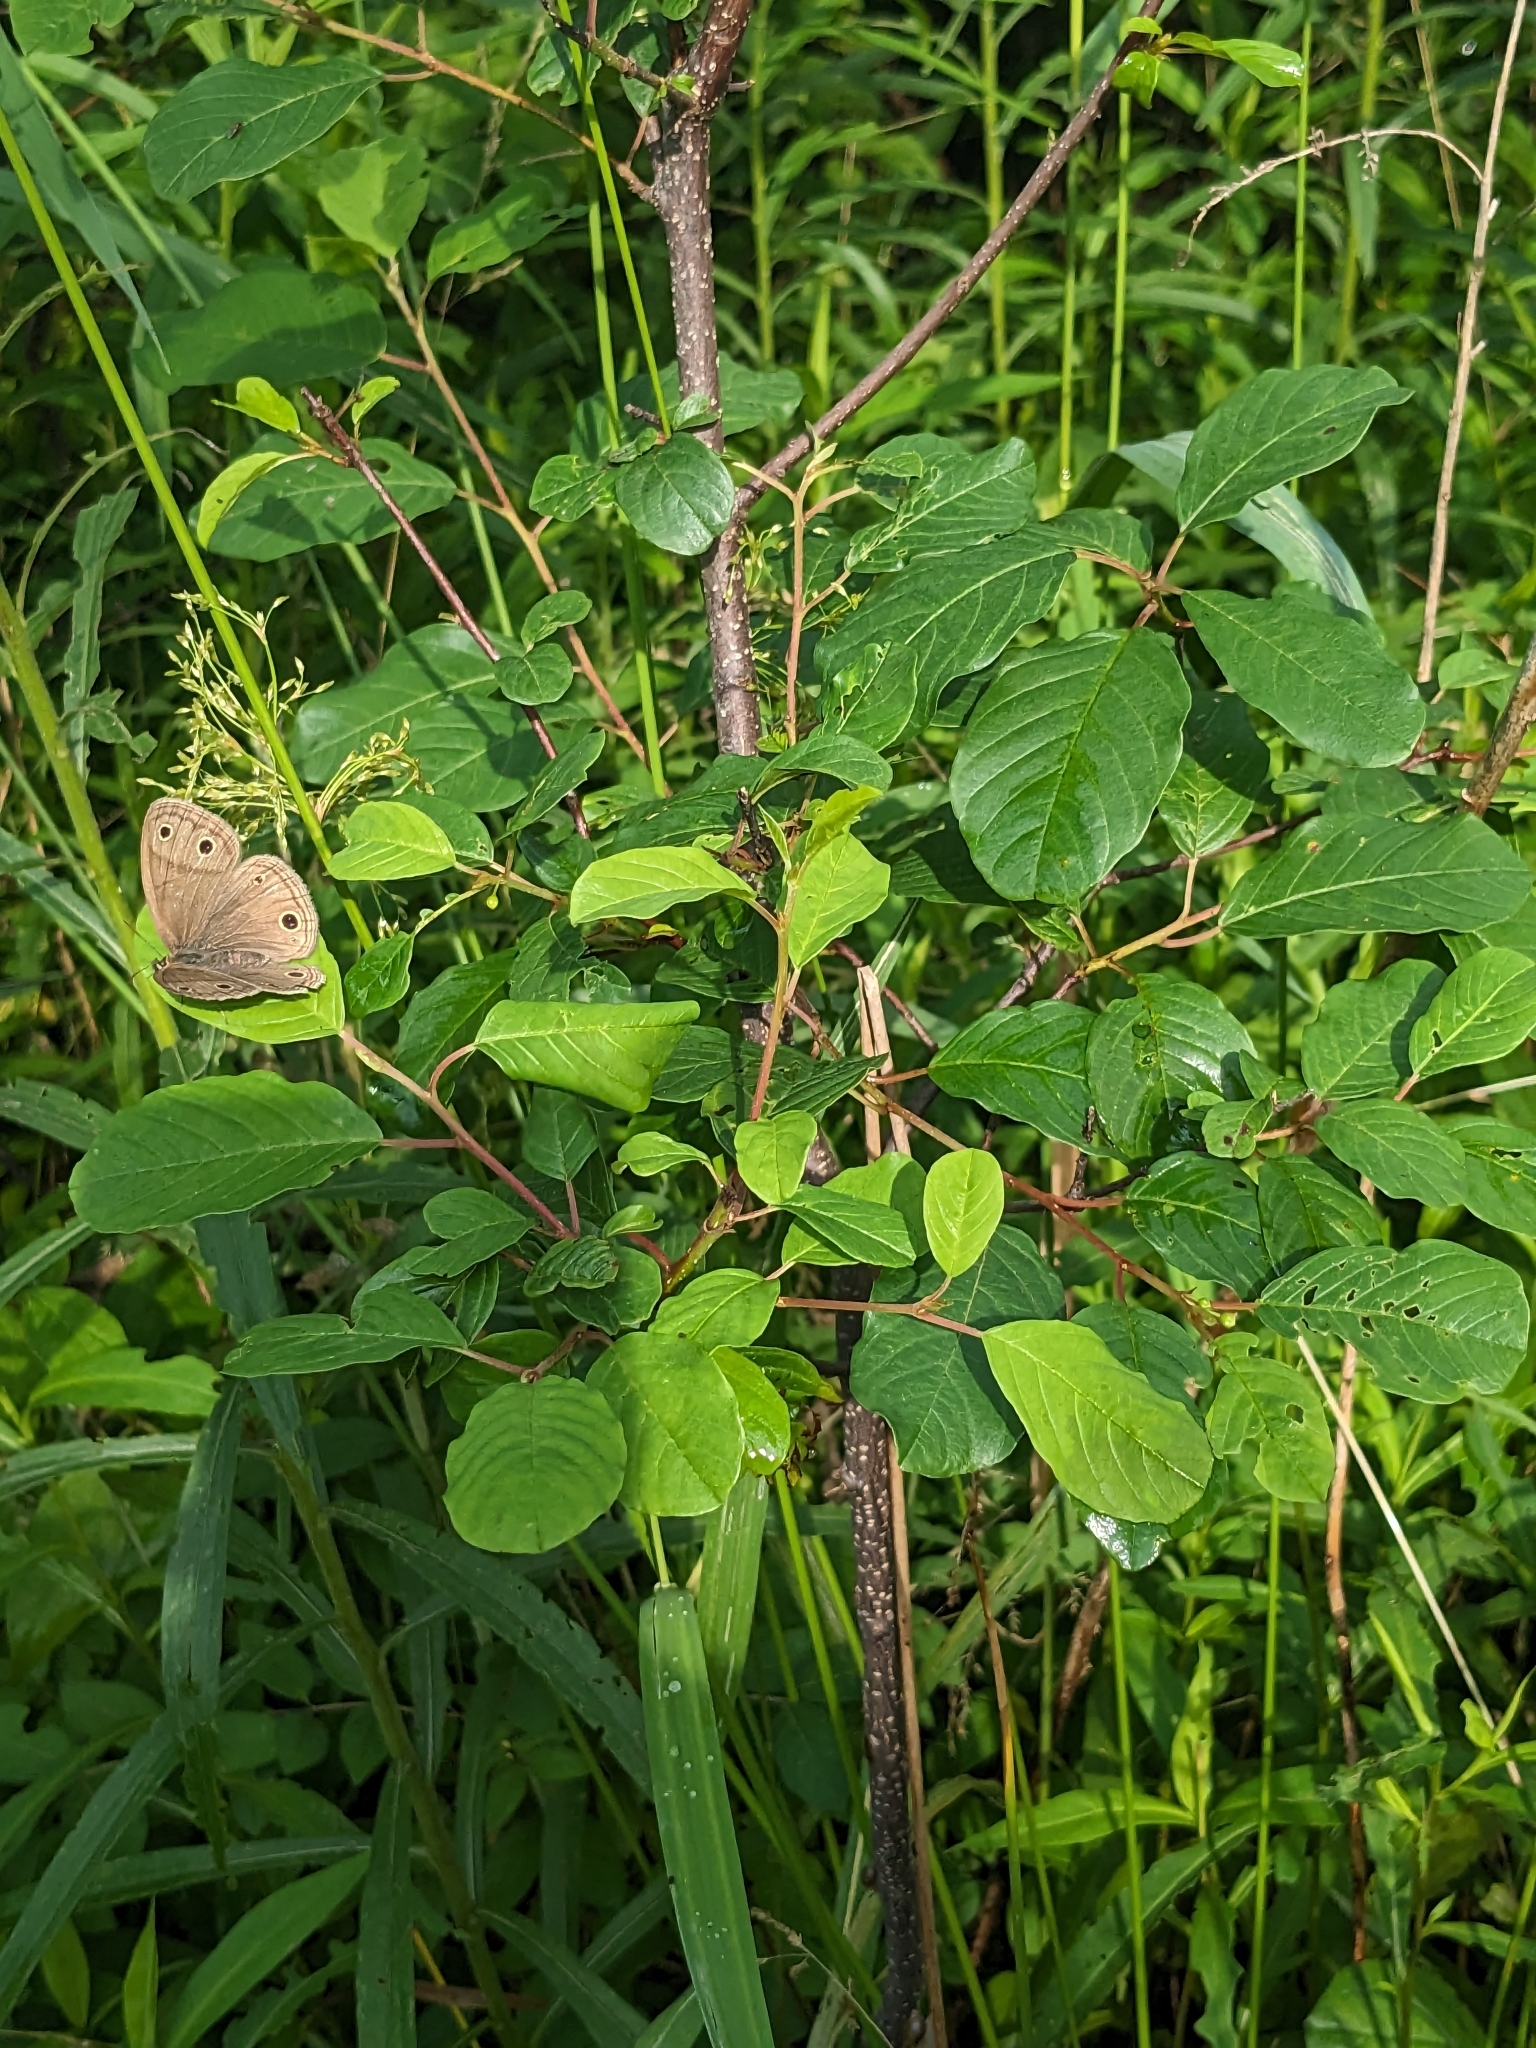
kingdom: Plantae
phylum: Tracheophyta
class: Magnoliopsida
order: Rosales
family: Rhamnaceae
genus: Frangula
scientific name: Frangula alnus
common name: Alder buckthorn
